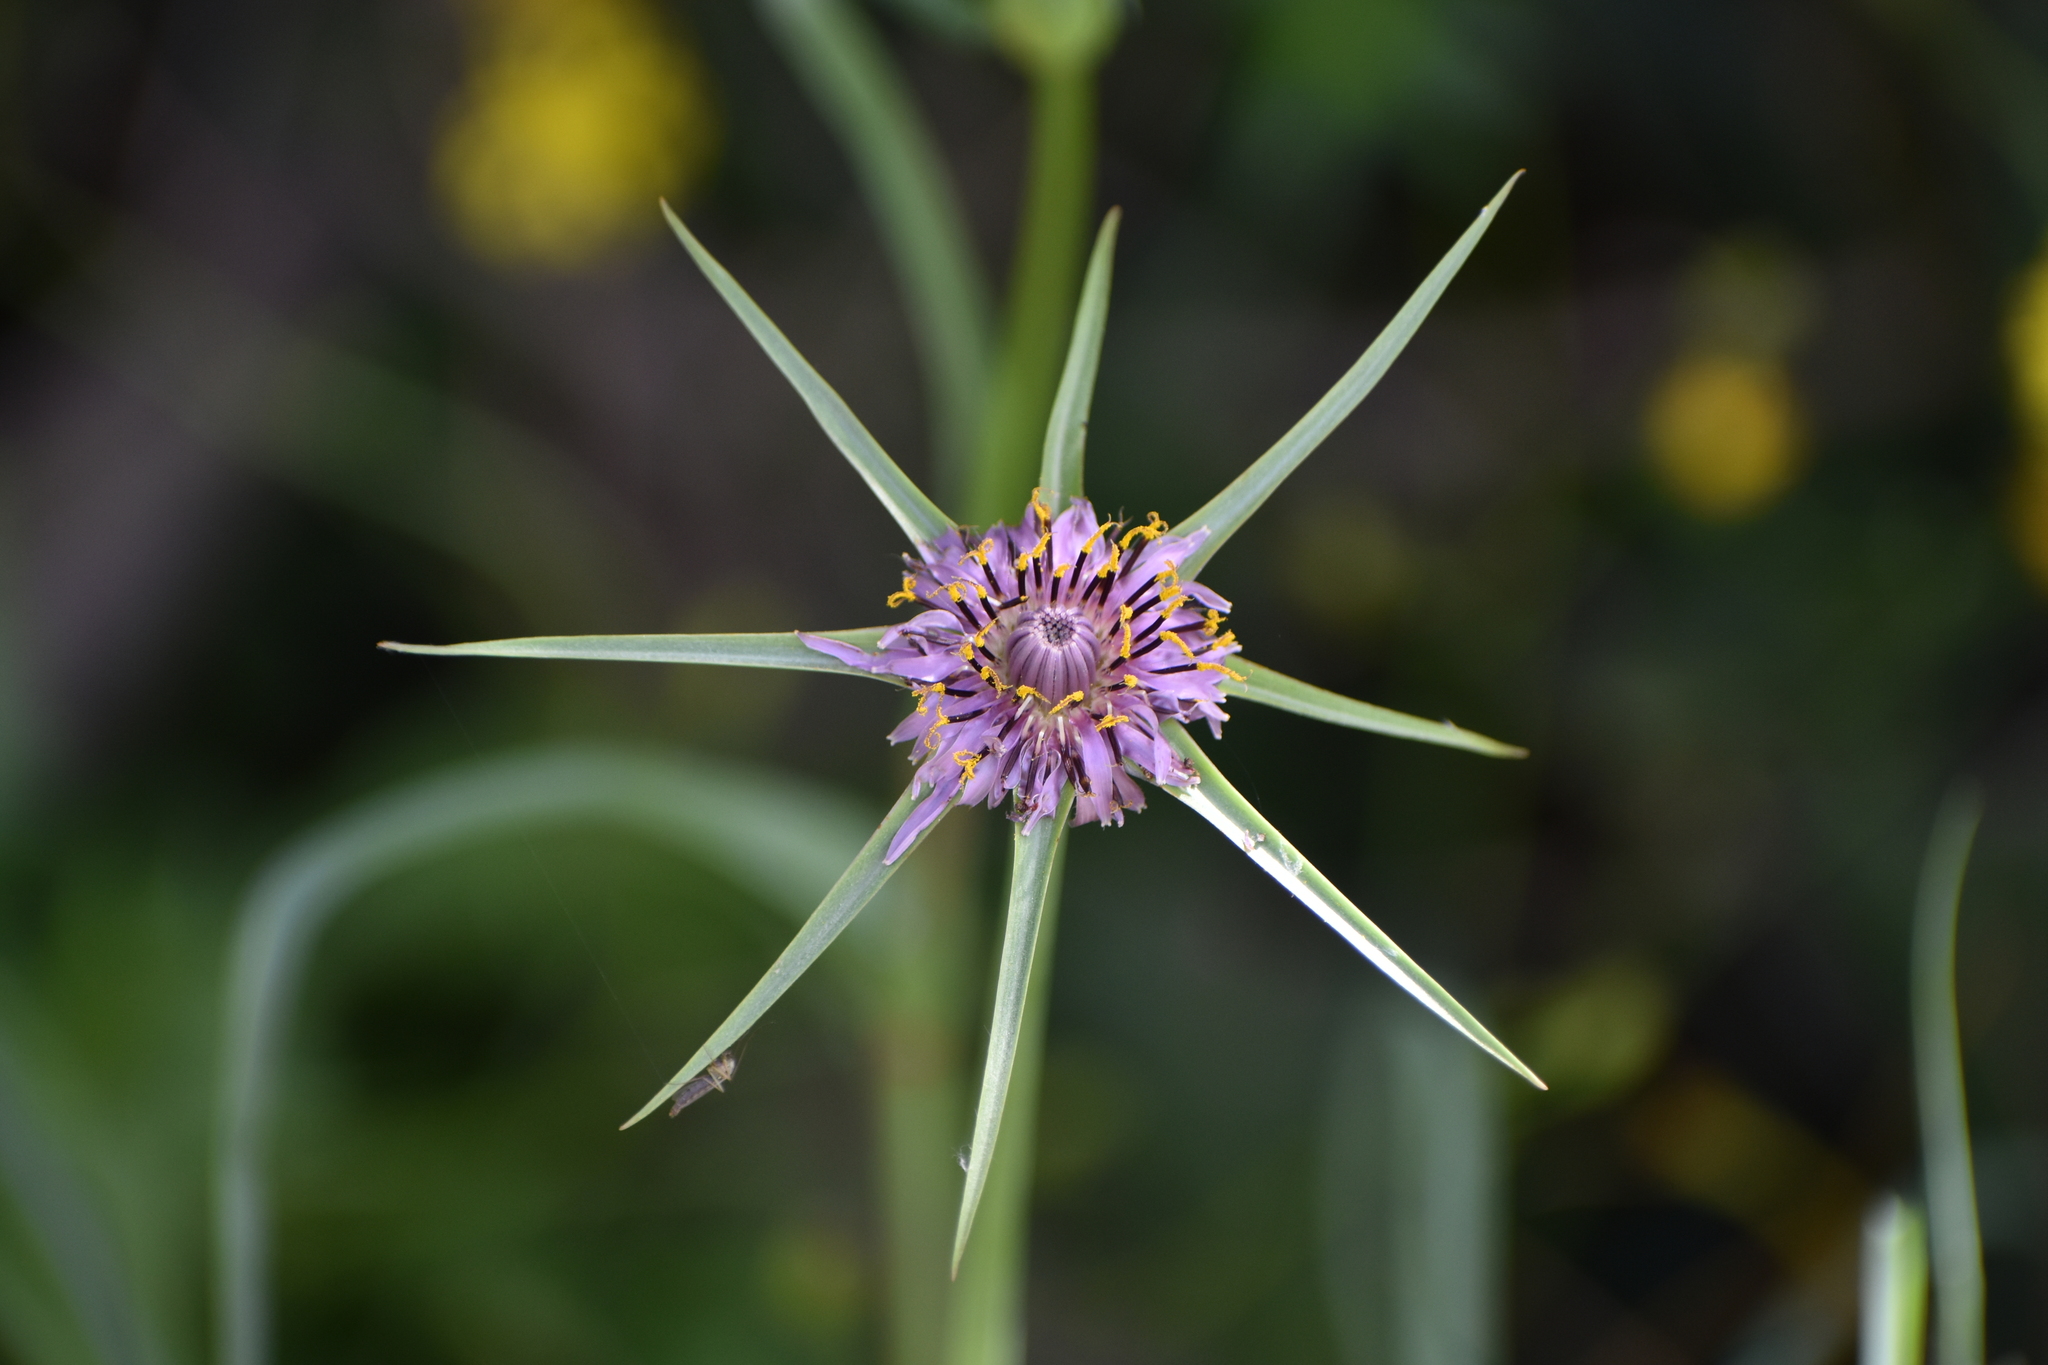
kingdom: Plantae
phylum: Tracheophyta
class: Magnoliopsida
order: Asterales
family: Asteraceae
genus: Tragopogon
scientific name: Tragopogon coelesyriacus
